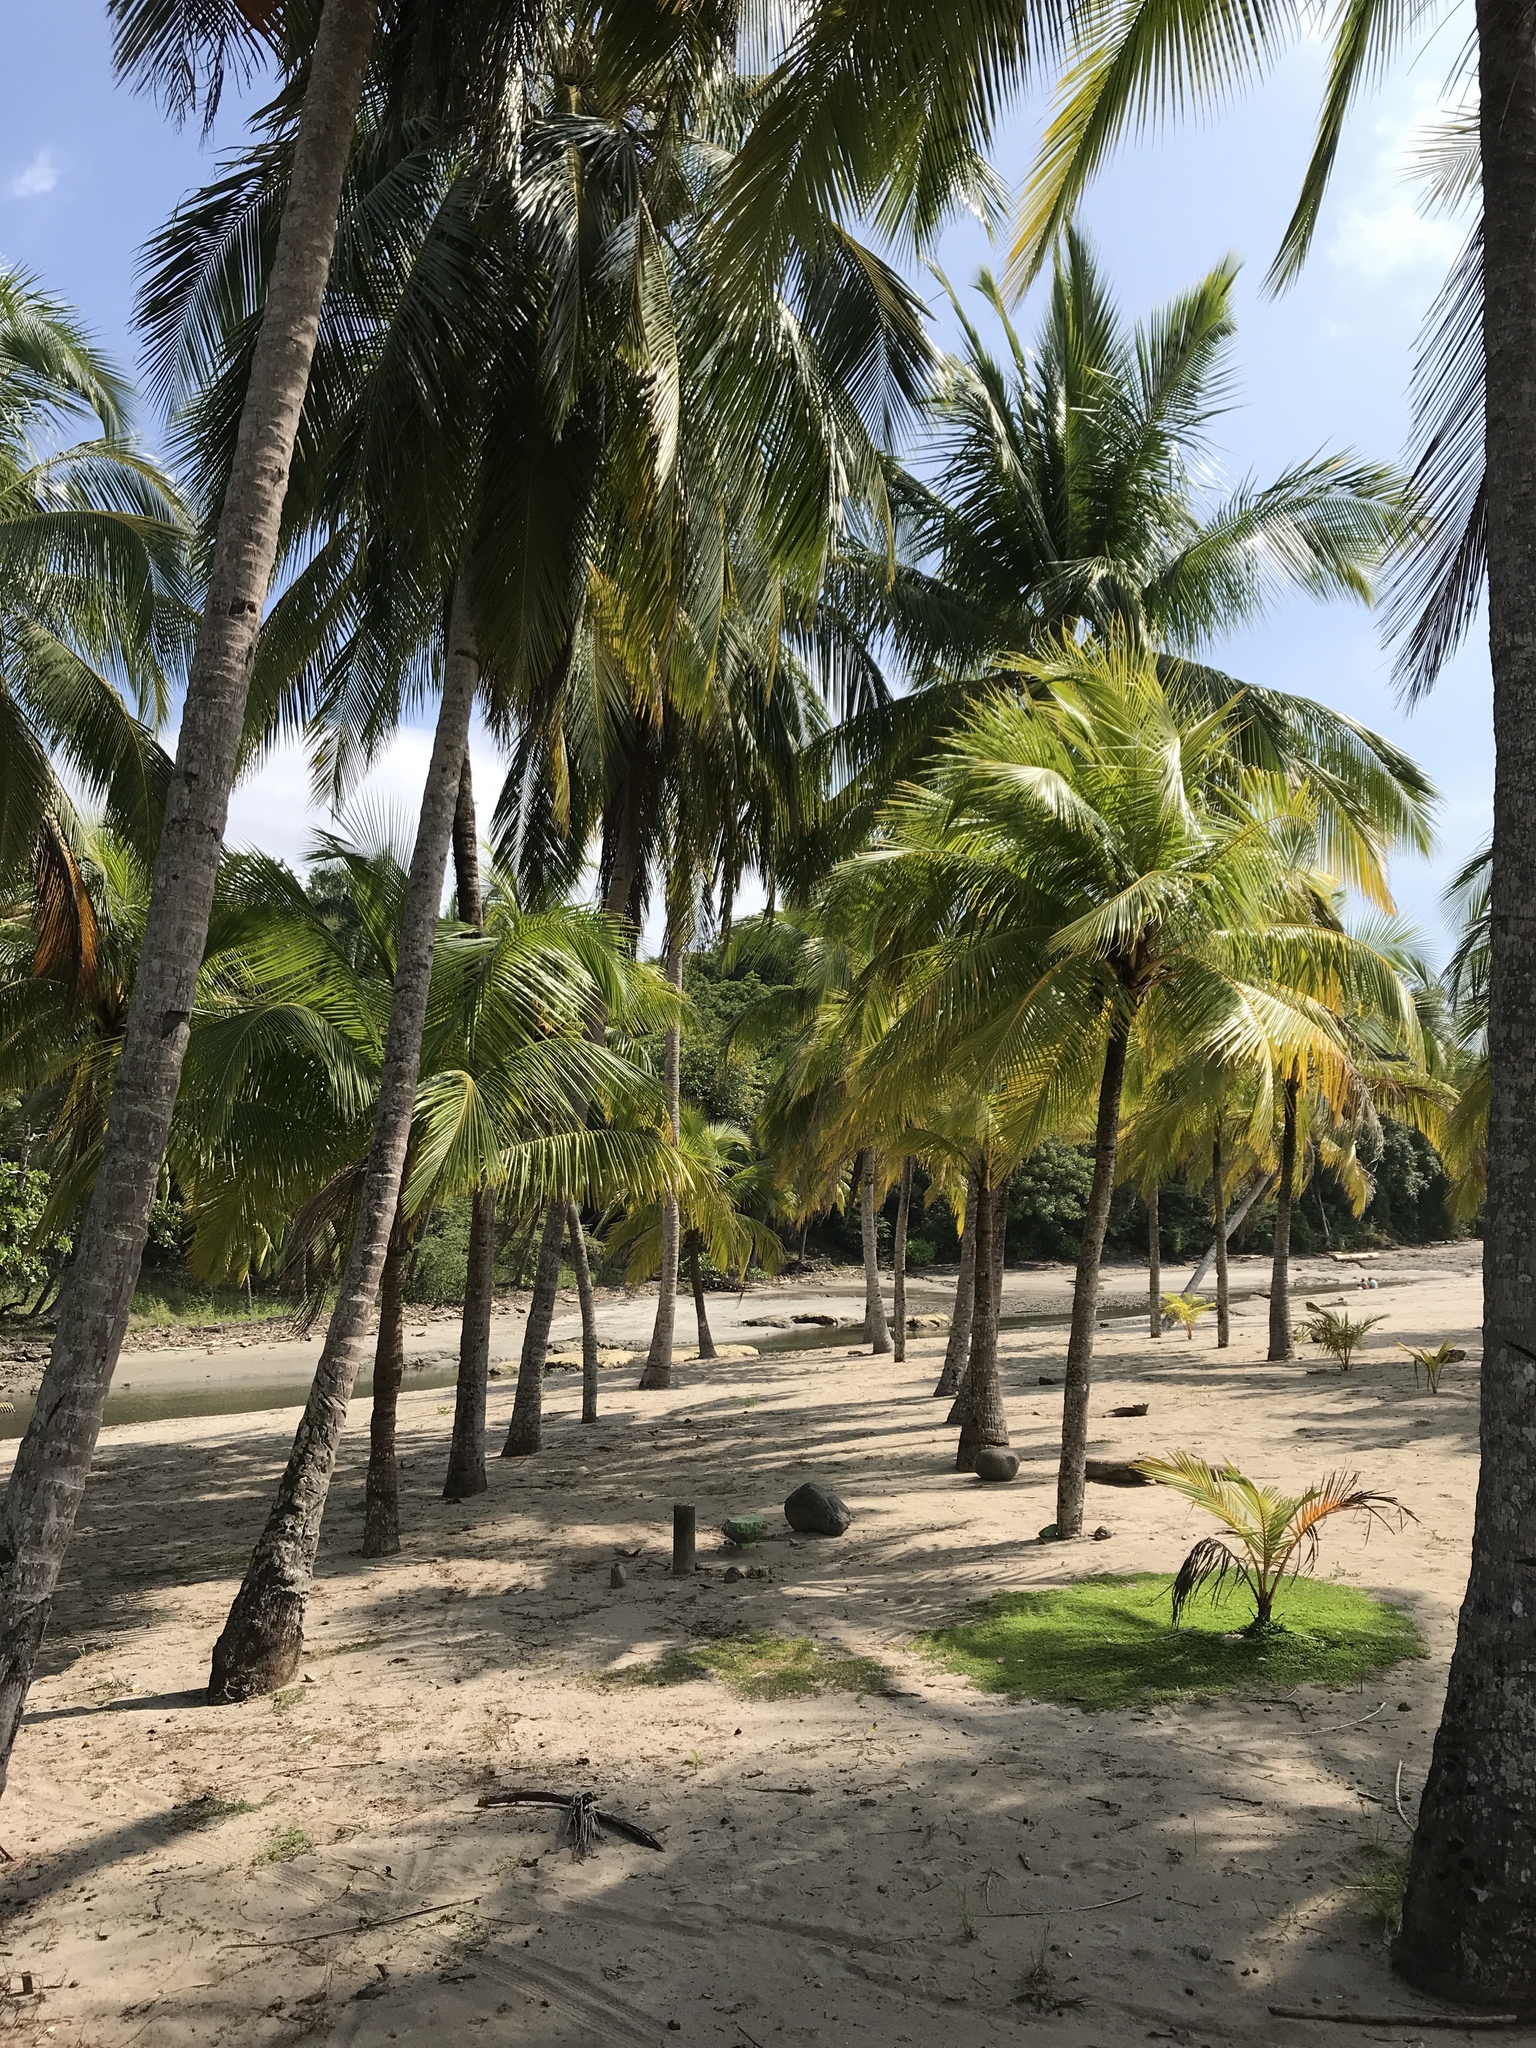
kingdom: Plantae
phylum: Tracheophyta
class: Liliopsida
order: Arecales
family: Arecaceae
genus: Cocos
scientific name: Cocos nucifera
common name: Coconut palm
